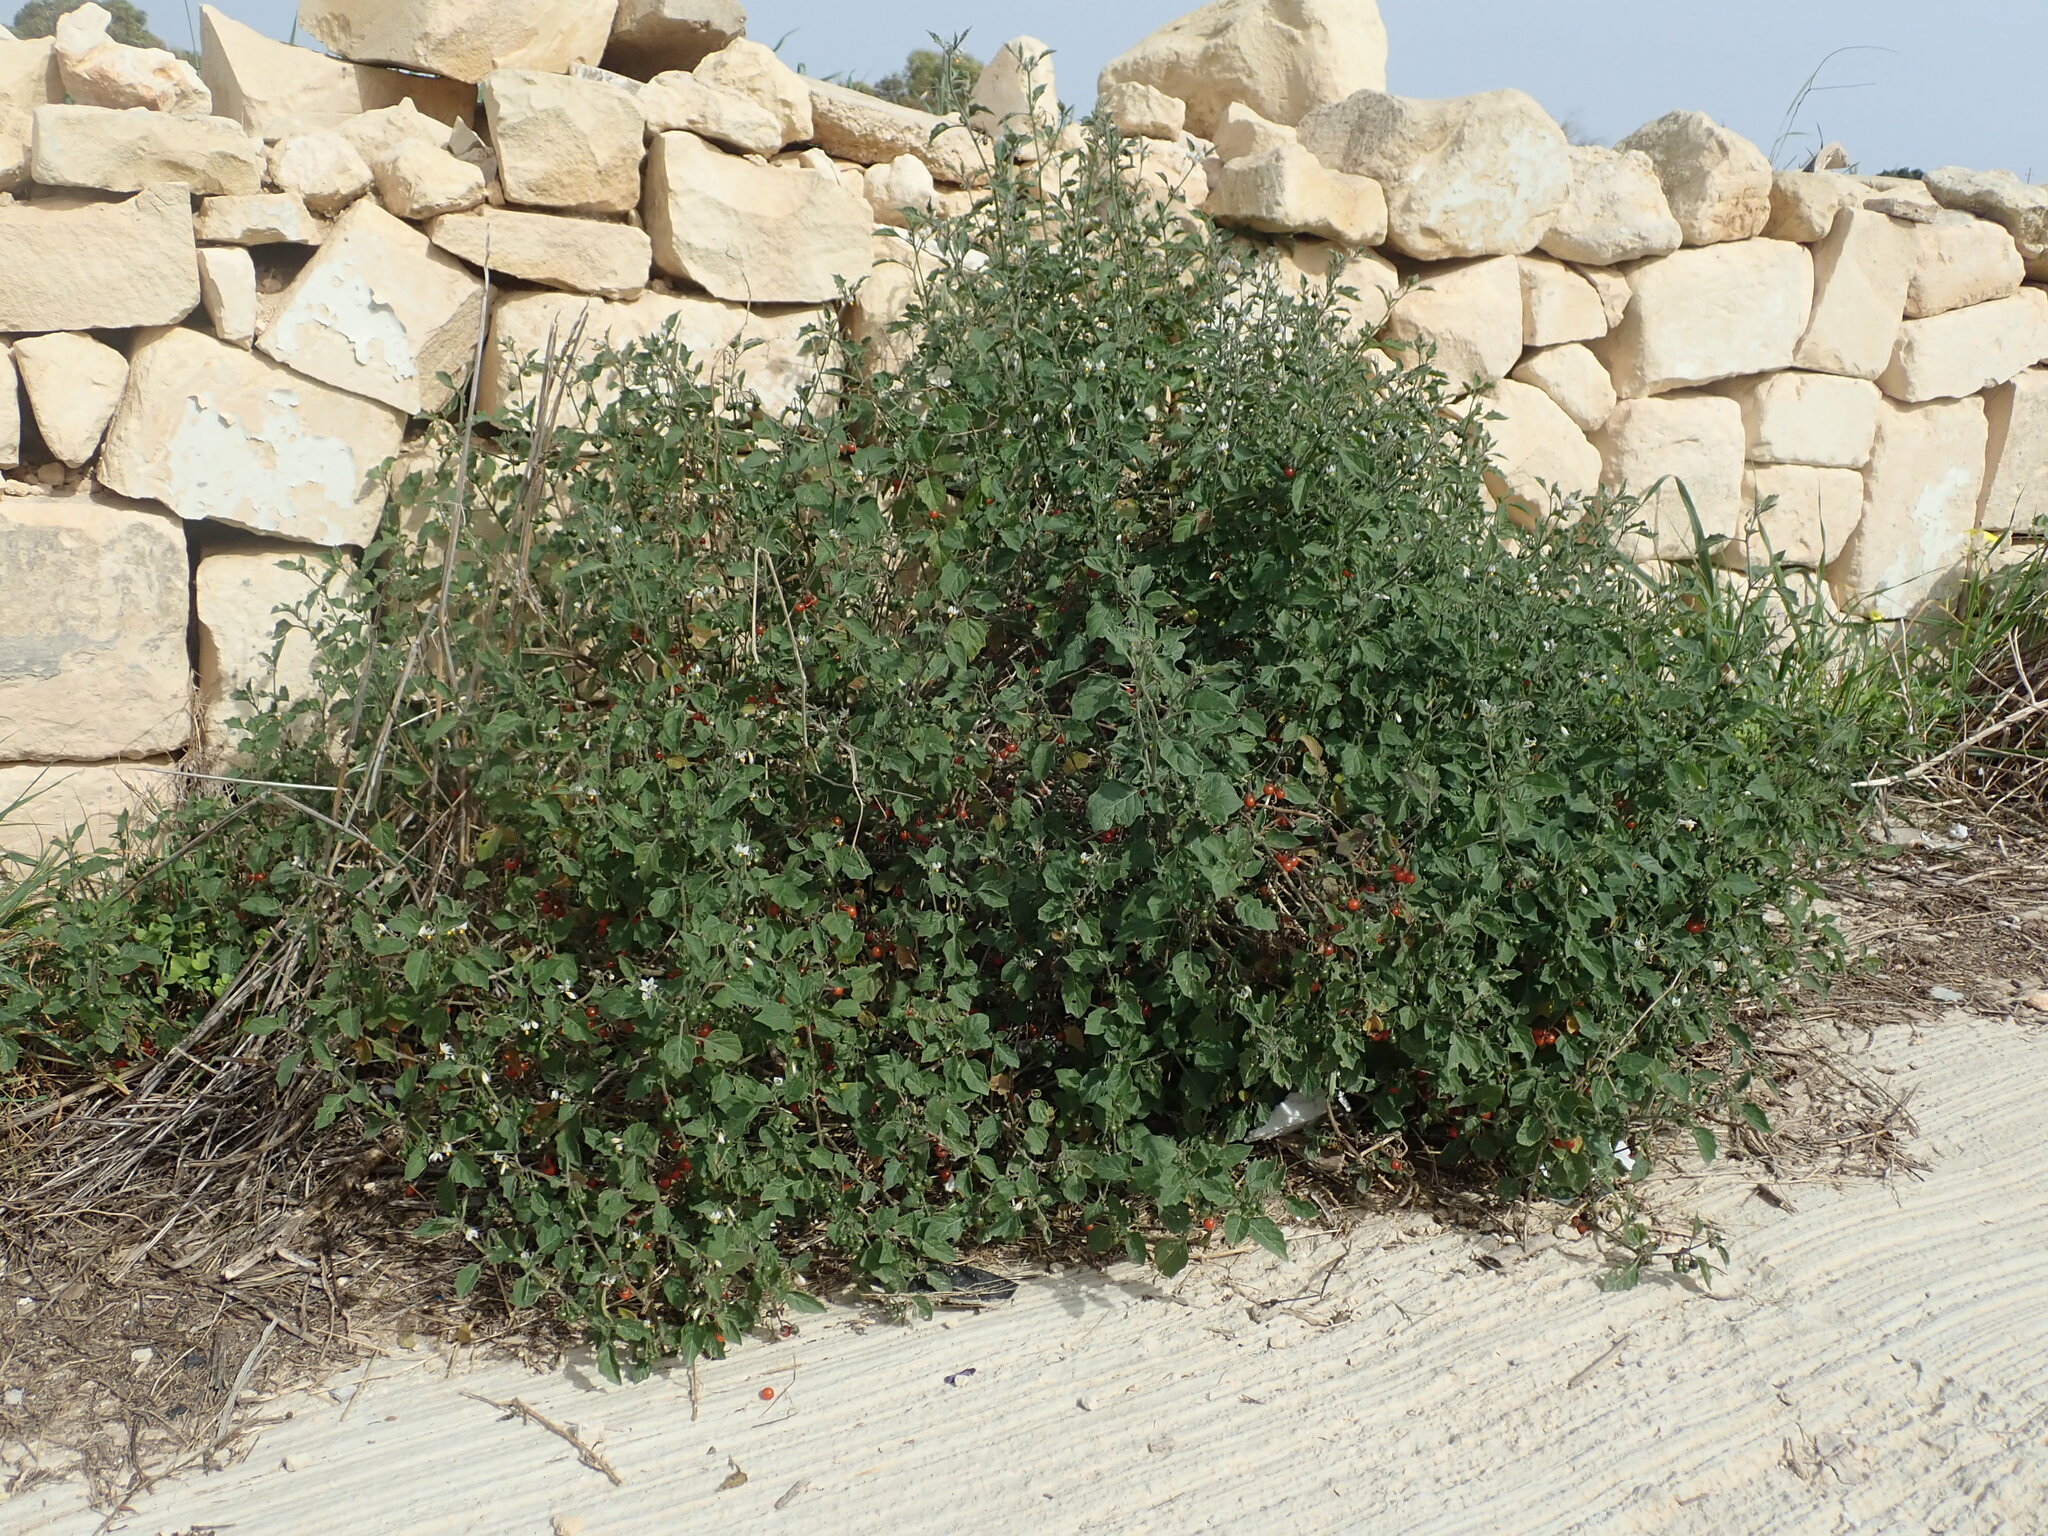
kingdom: Plantae
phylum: Tracheophyta
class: Magnoliopsida
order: Solanales
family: Solanaceae
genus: Solanum
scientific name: Solanum villosum
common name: Red nightshade
